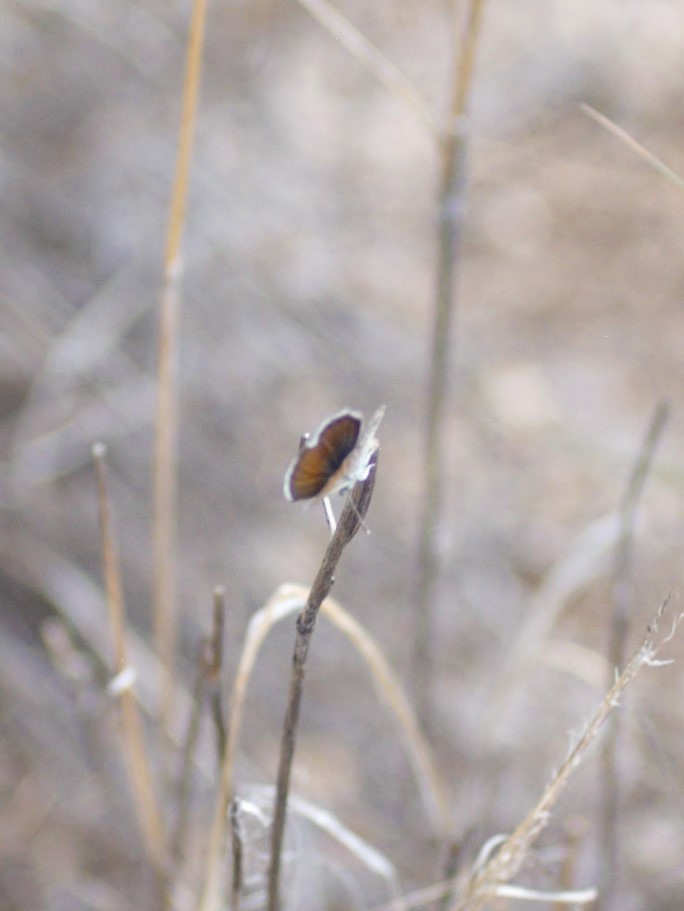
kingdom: Animalia
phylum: Arthropoda
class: Insecta
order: Lepidoptera
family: Lycaenidae
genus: Brephidium
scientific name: Brephidium exilis
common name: Pygmy blue
